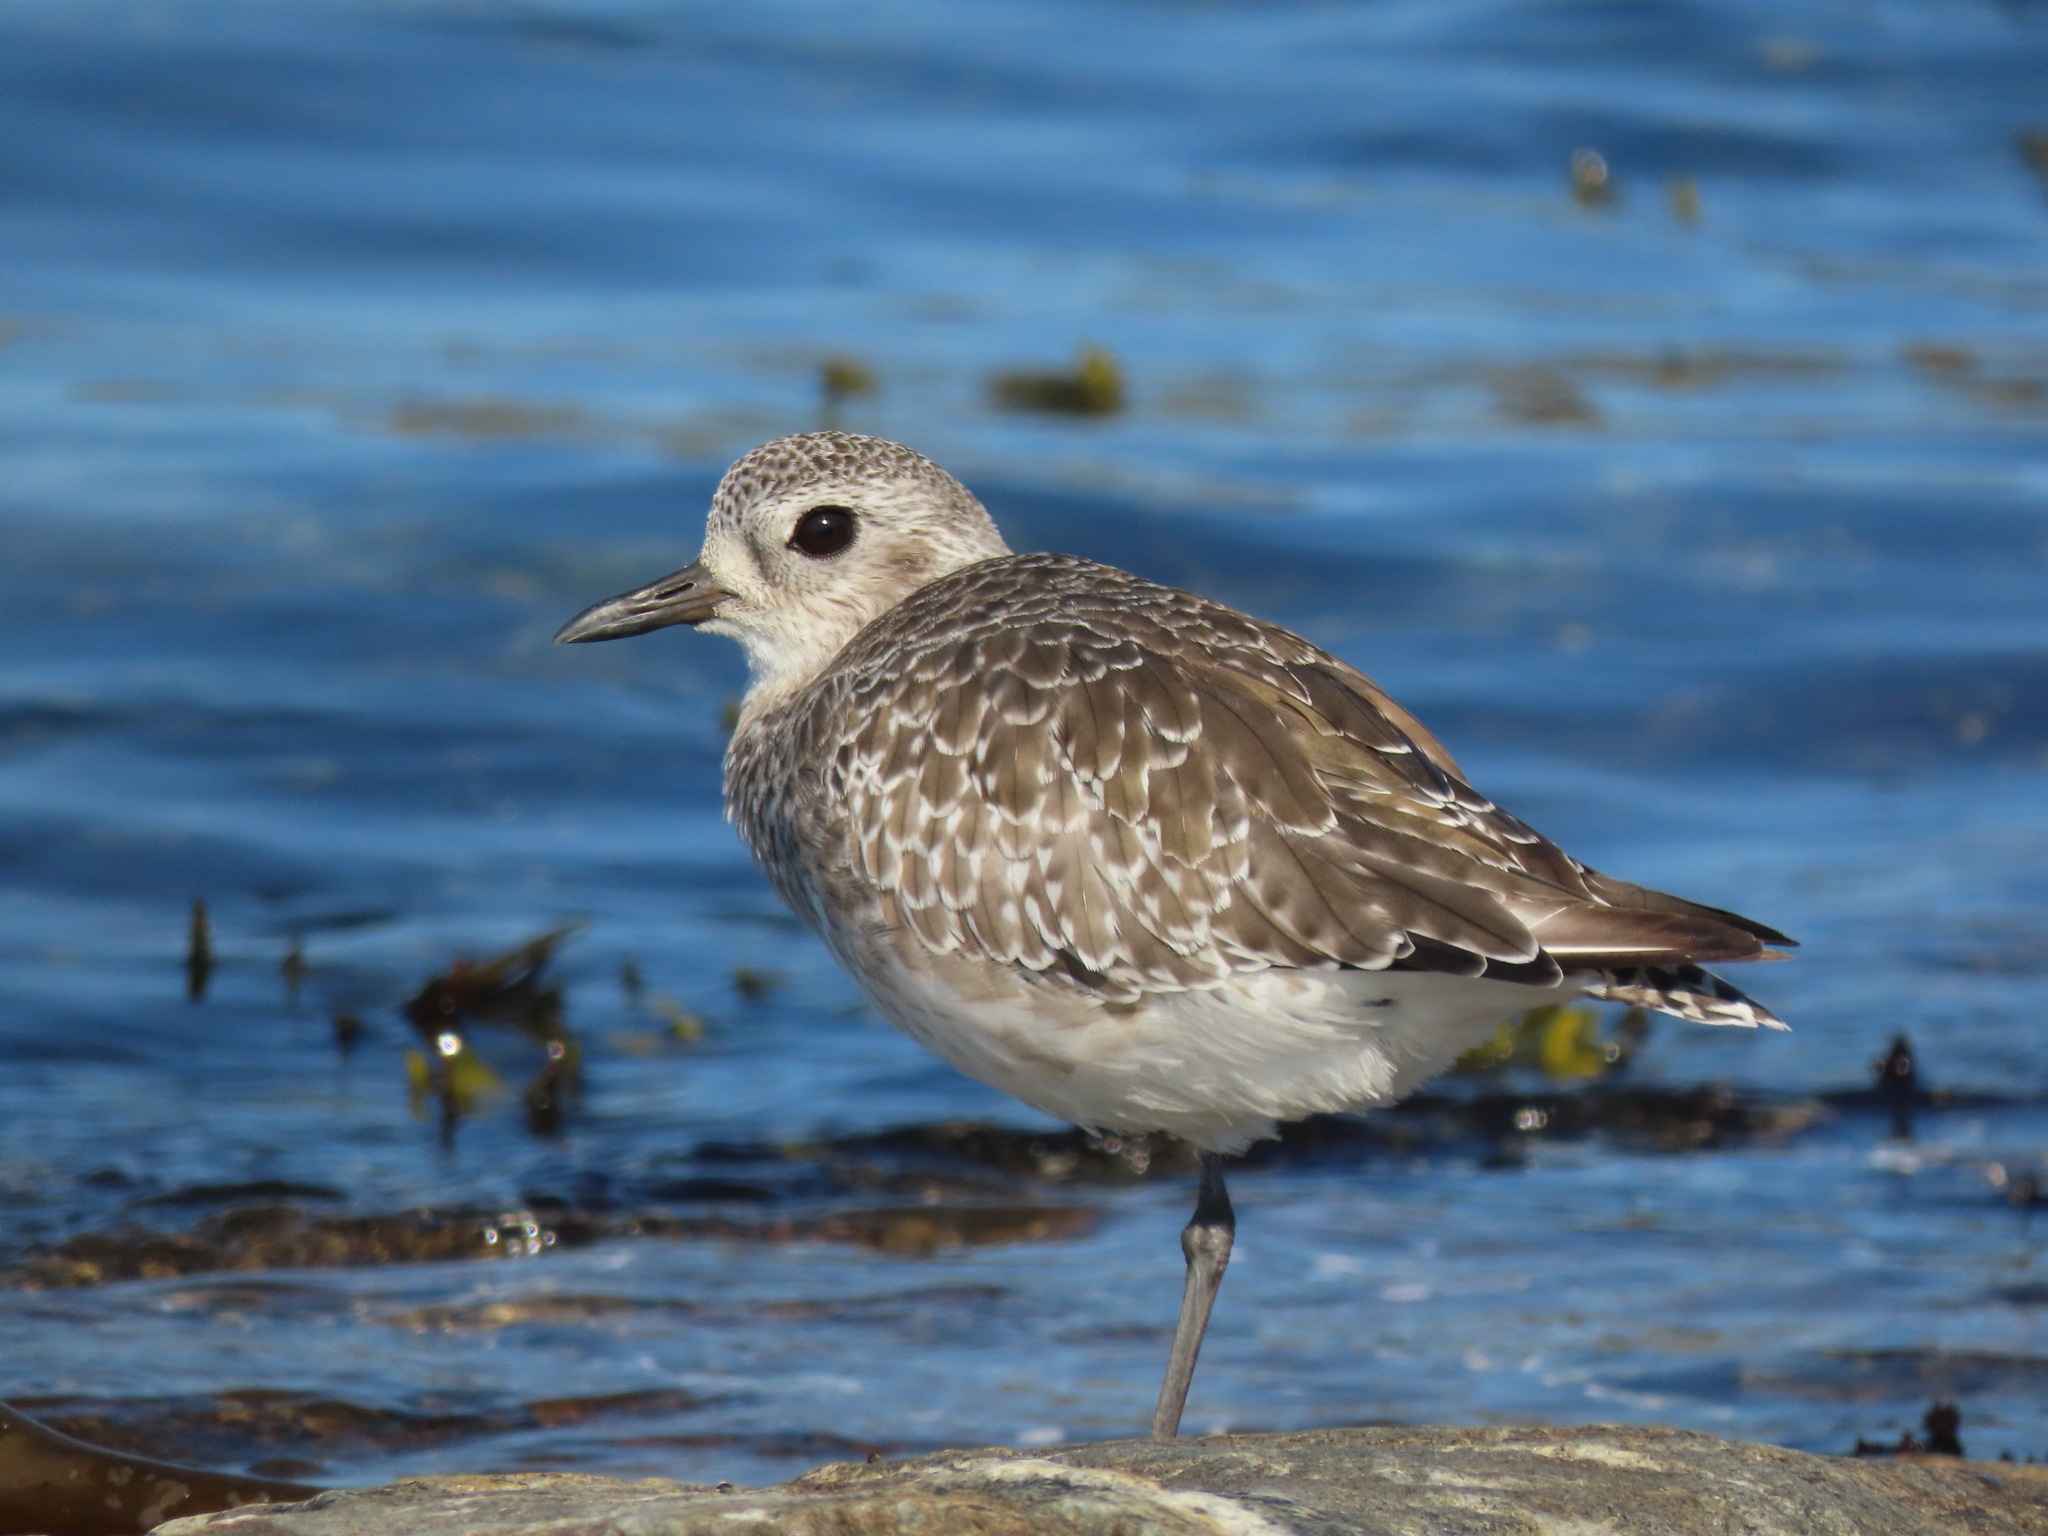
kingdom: Animalia
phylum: Chordata
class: Aves
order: Charadriiformes
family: Charadriidae
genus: Pluvialis
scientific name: Pluvialis squatarola
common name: Grey plover
